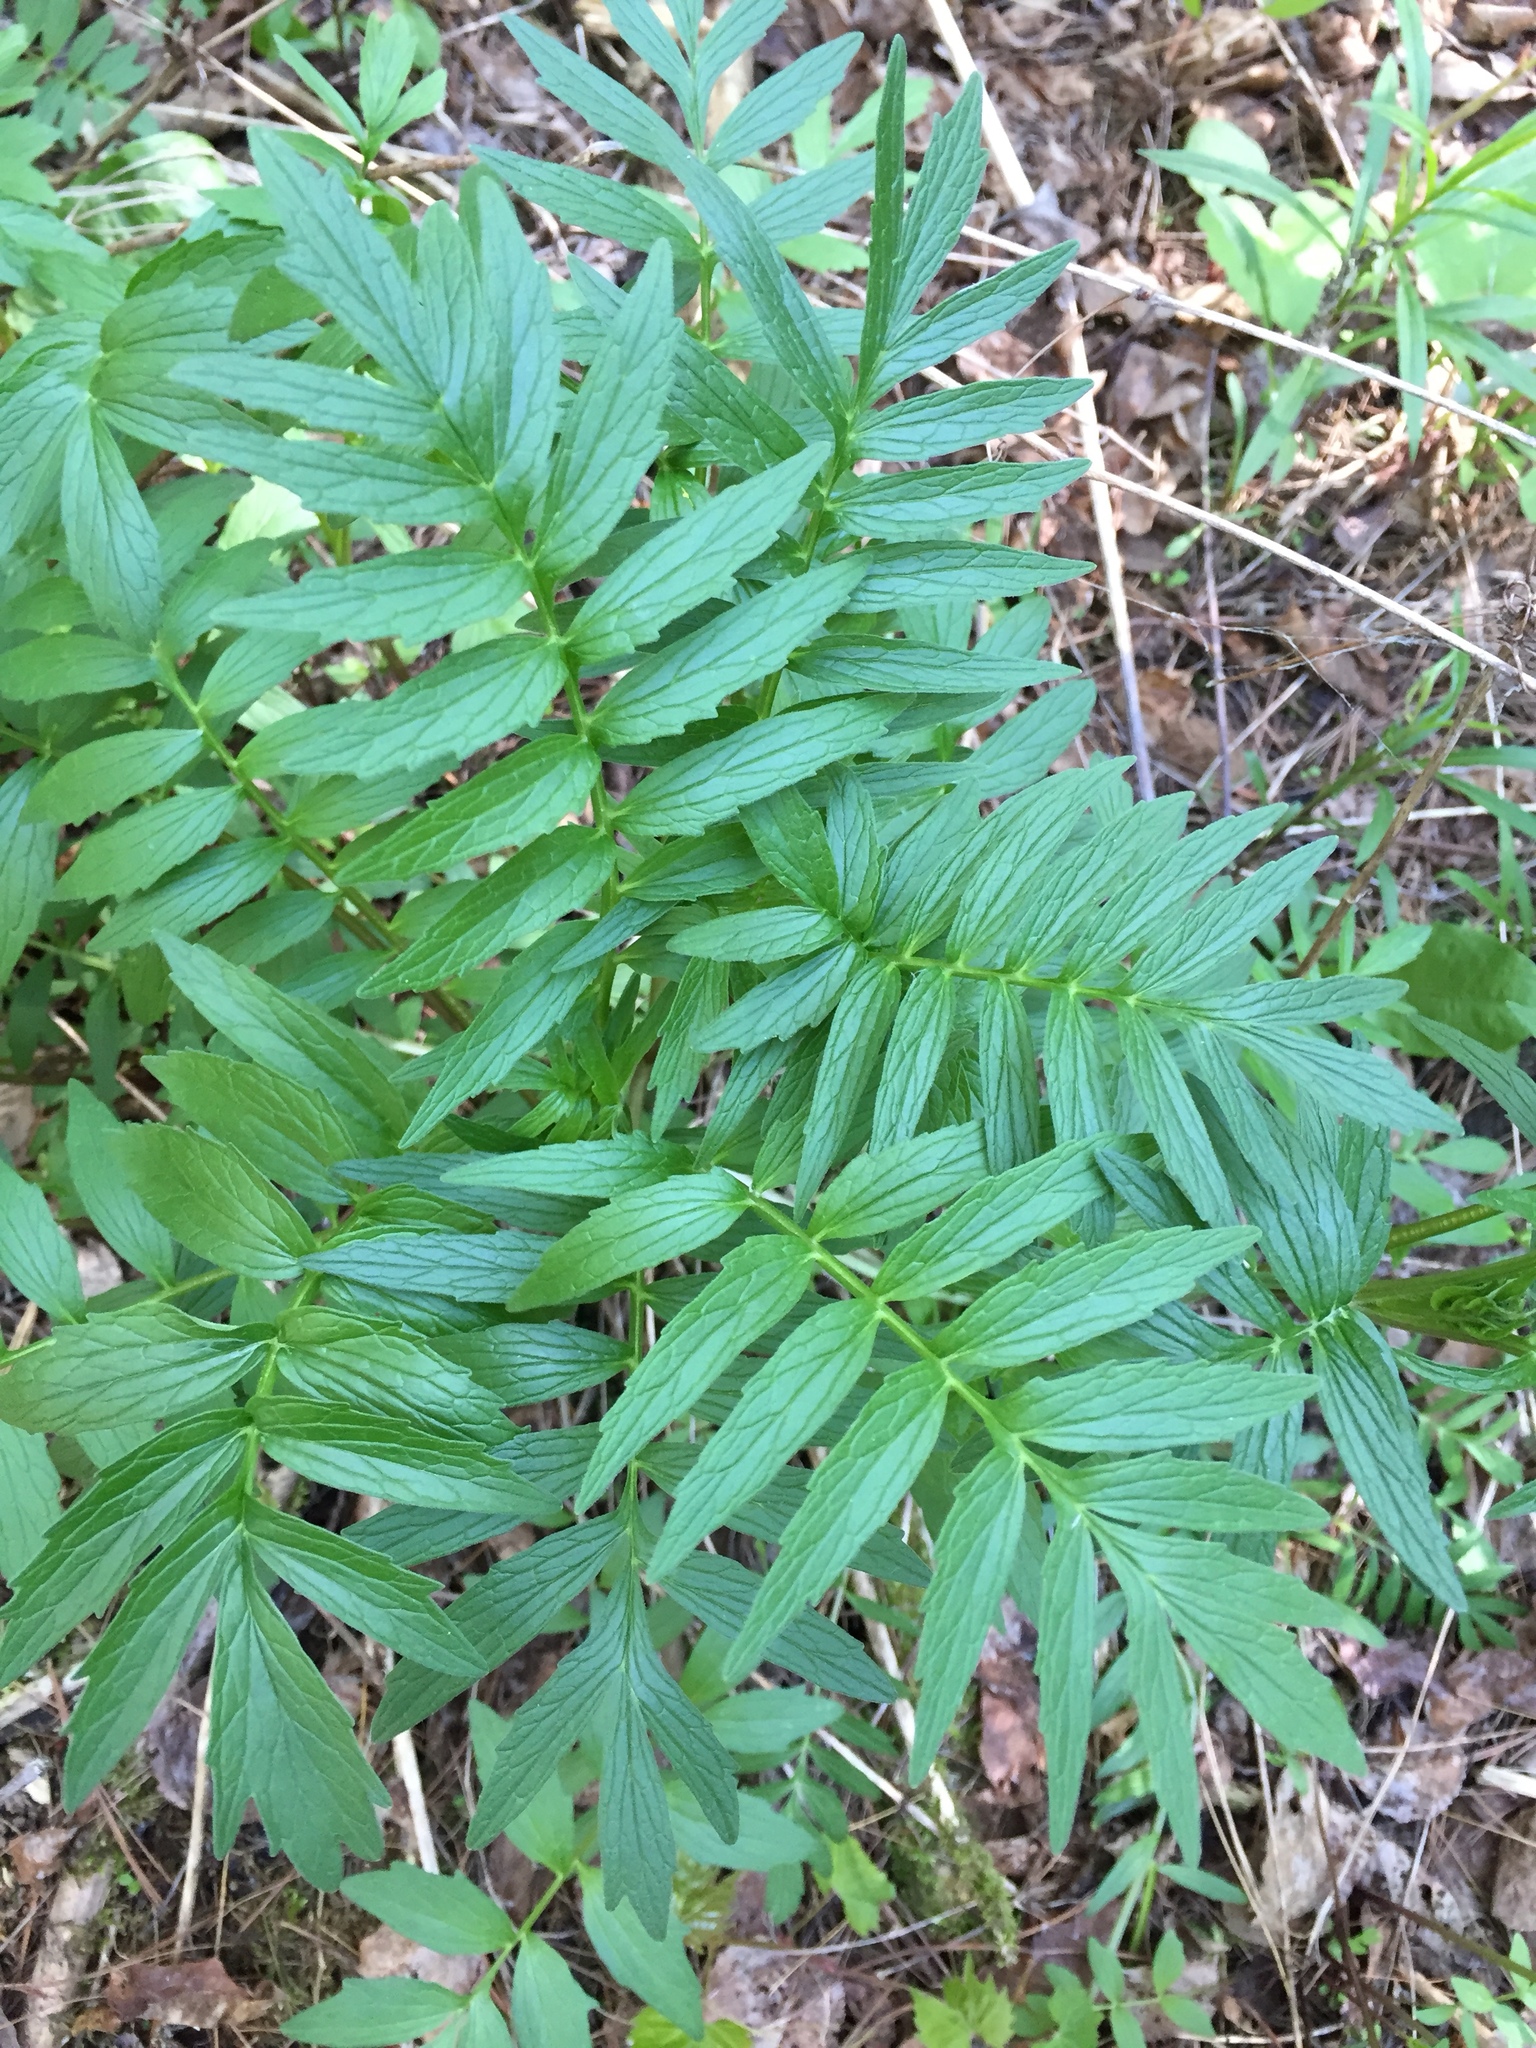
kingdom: Plantae
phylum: Tracheophyta
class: Magnoliopsida
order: Dipsacales
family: Caprifoliaceae
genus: Valeriana
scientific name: Valeriana officinalis
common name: Common valerian
